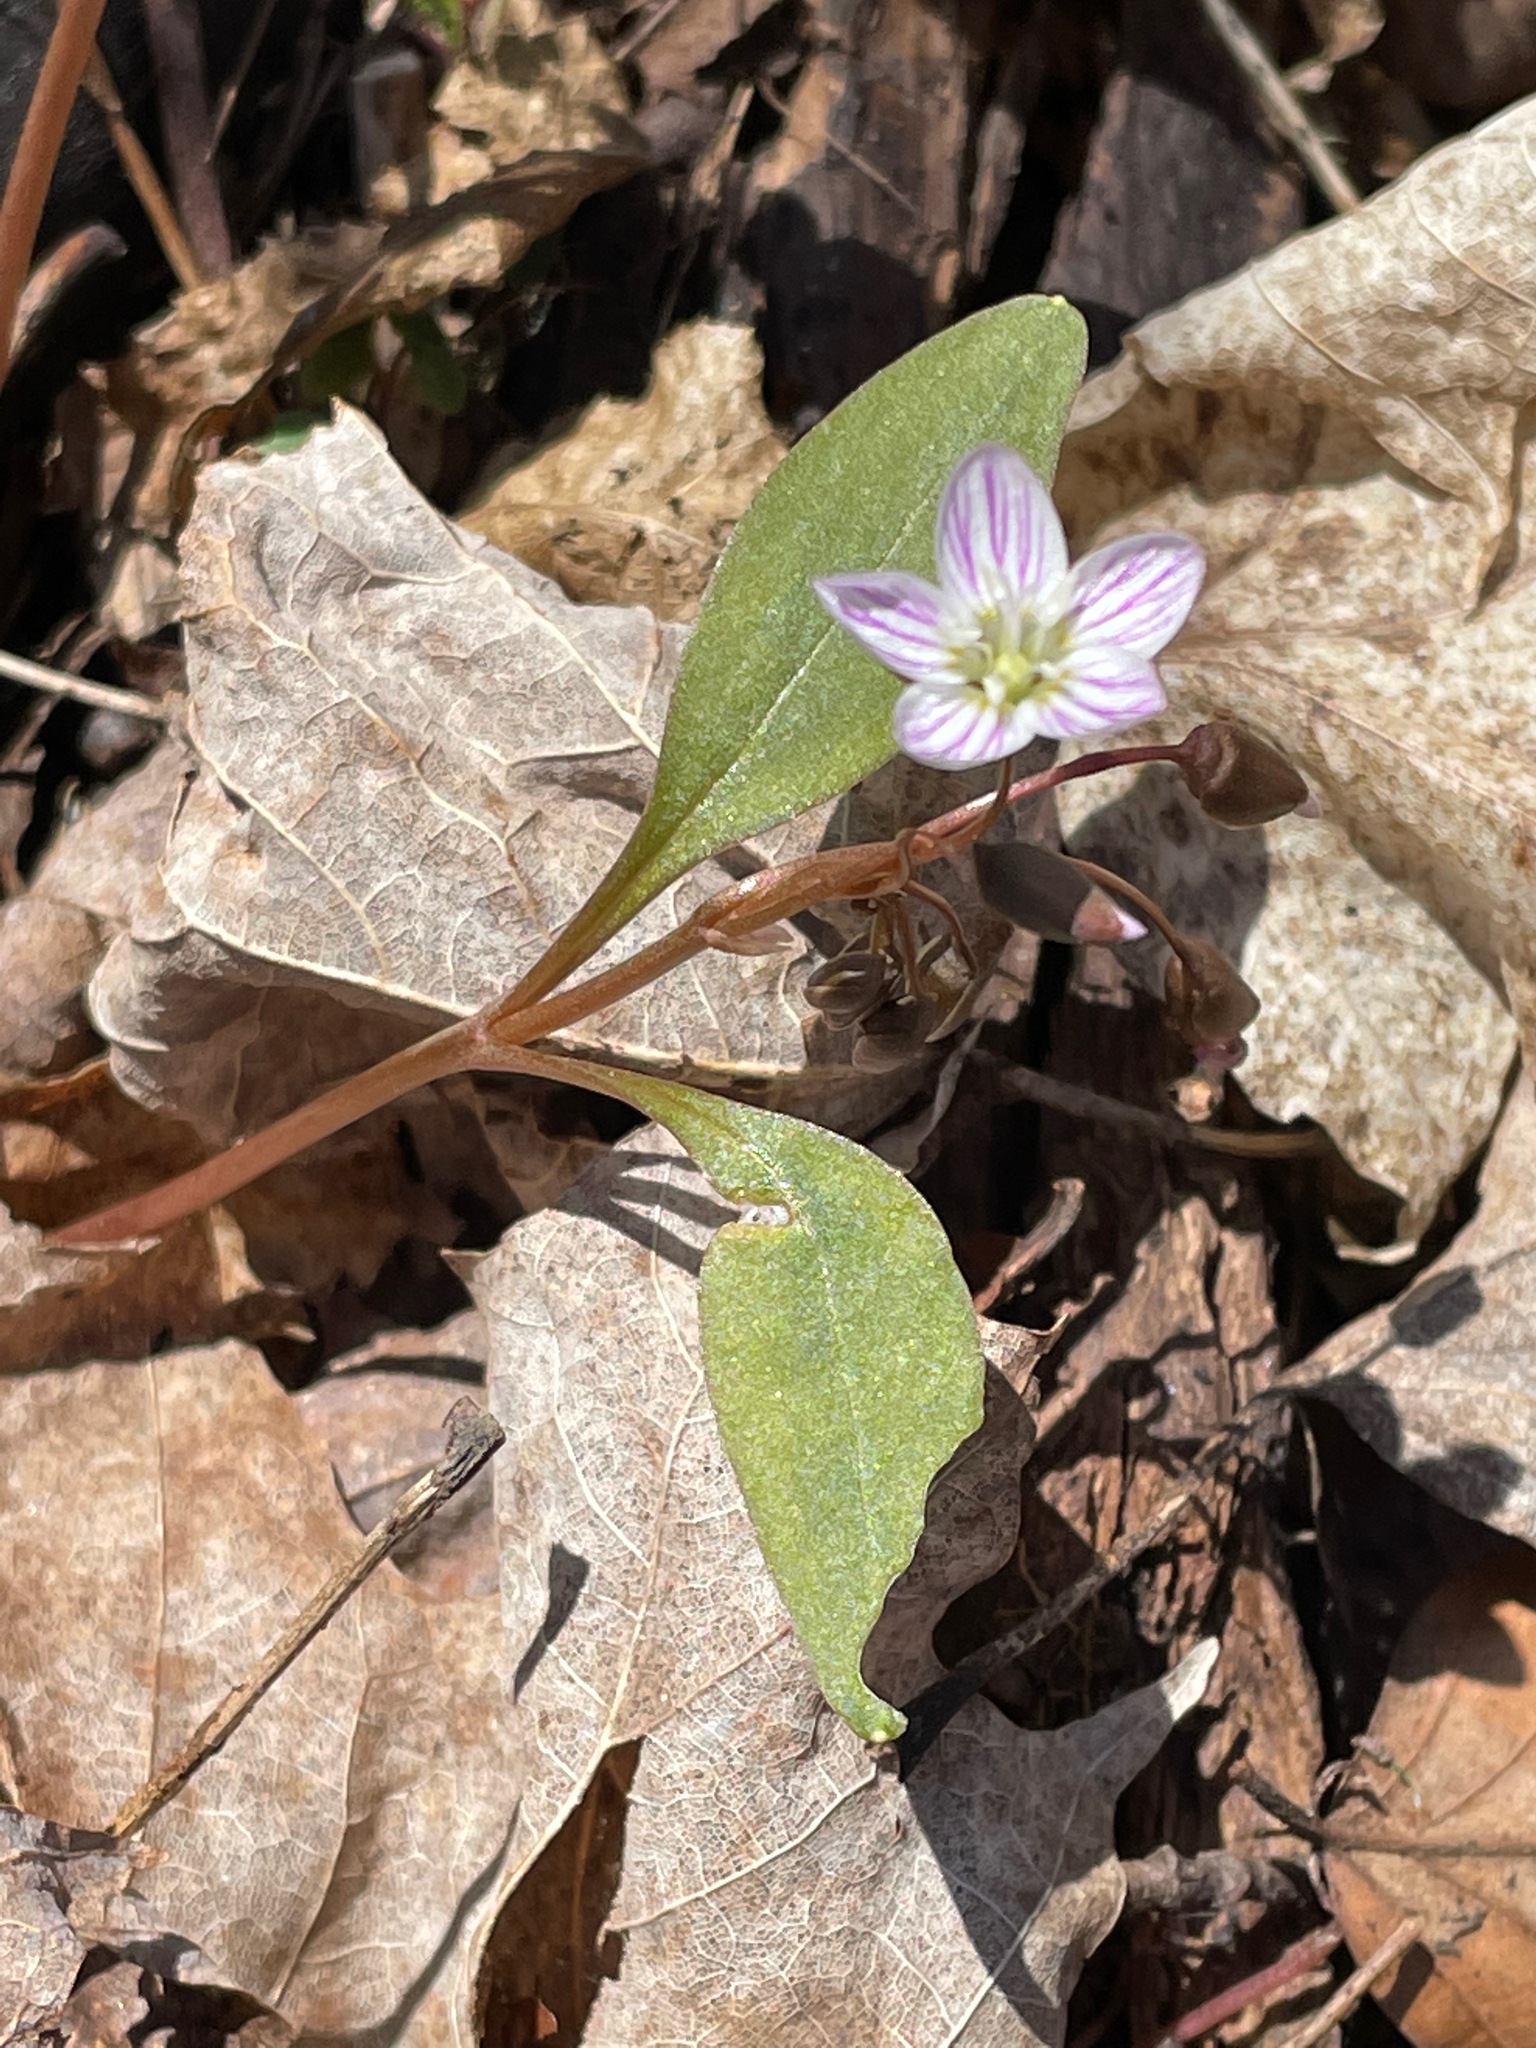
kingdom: Plantae
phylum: Tracheophyta
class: Magnoliopsida
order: Caryophyllales
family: Montiaceae
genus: Claytonia
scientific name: Claytonia caroliniana
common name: Carolina spring beauty
